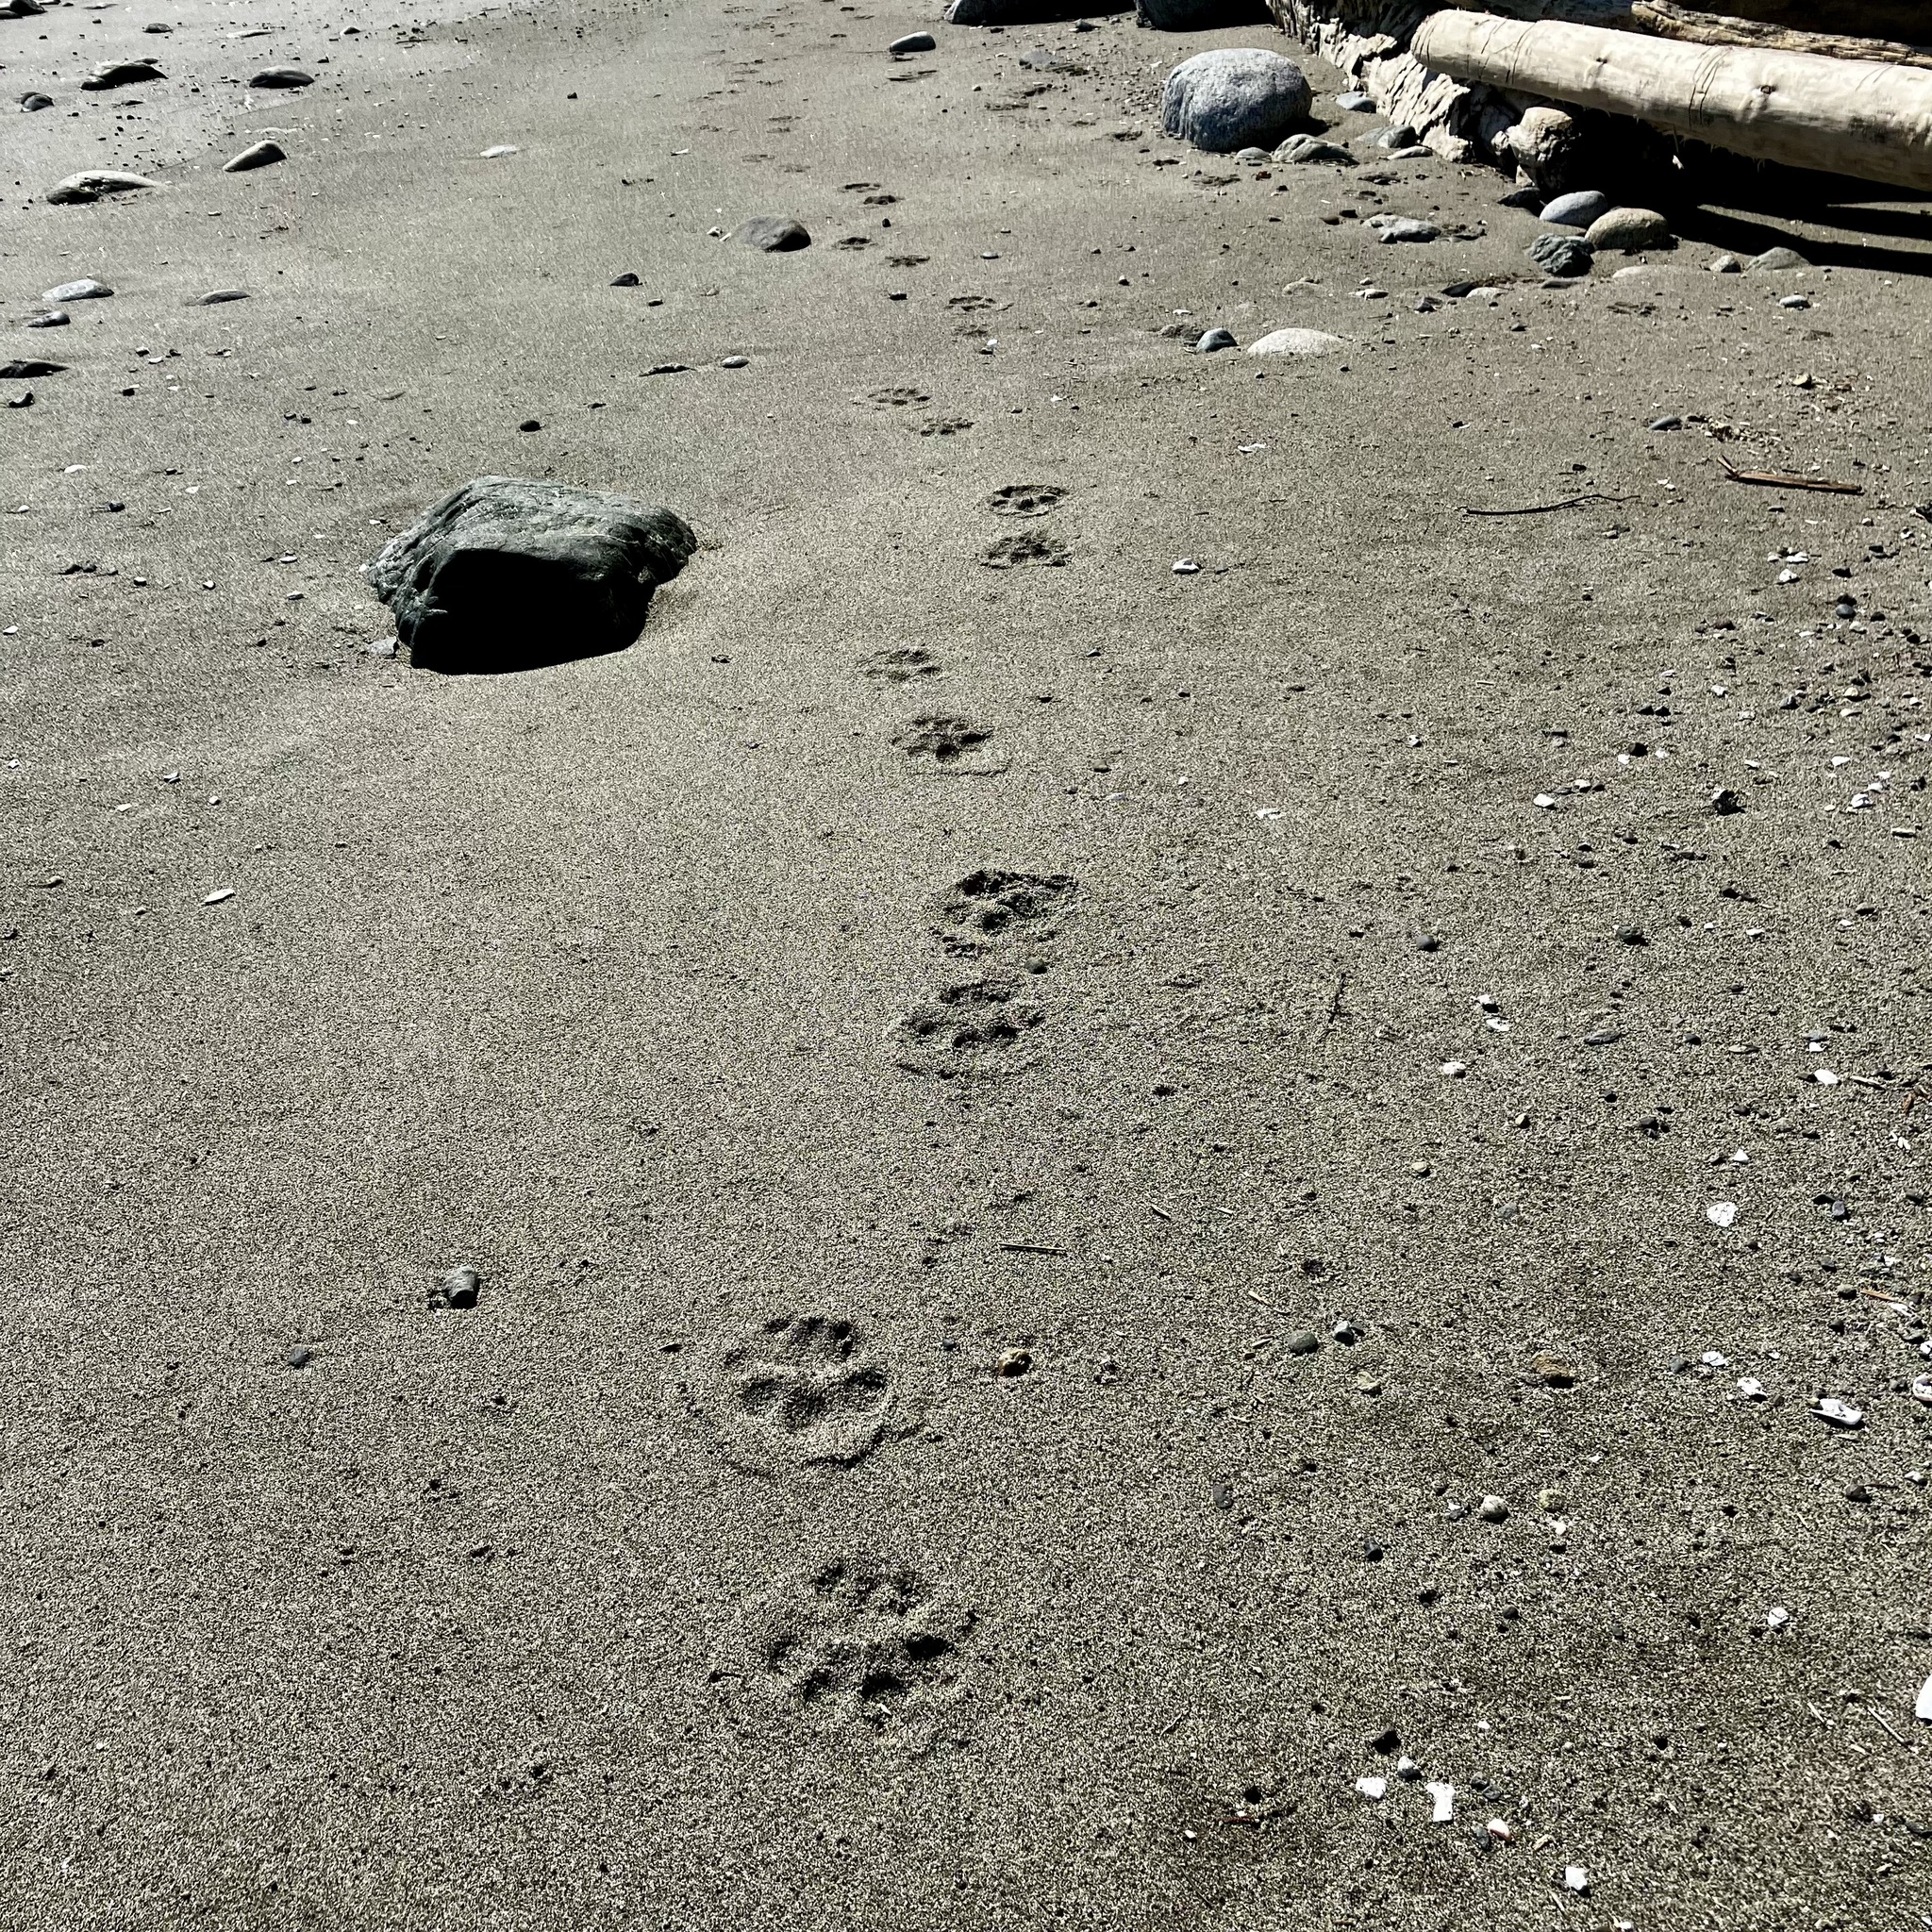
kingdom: Animalia
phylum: Chordata
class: Mammalia
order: Carnivora
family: Felidae
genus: Puma
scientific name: Puma concolor
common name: Puma
